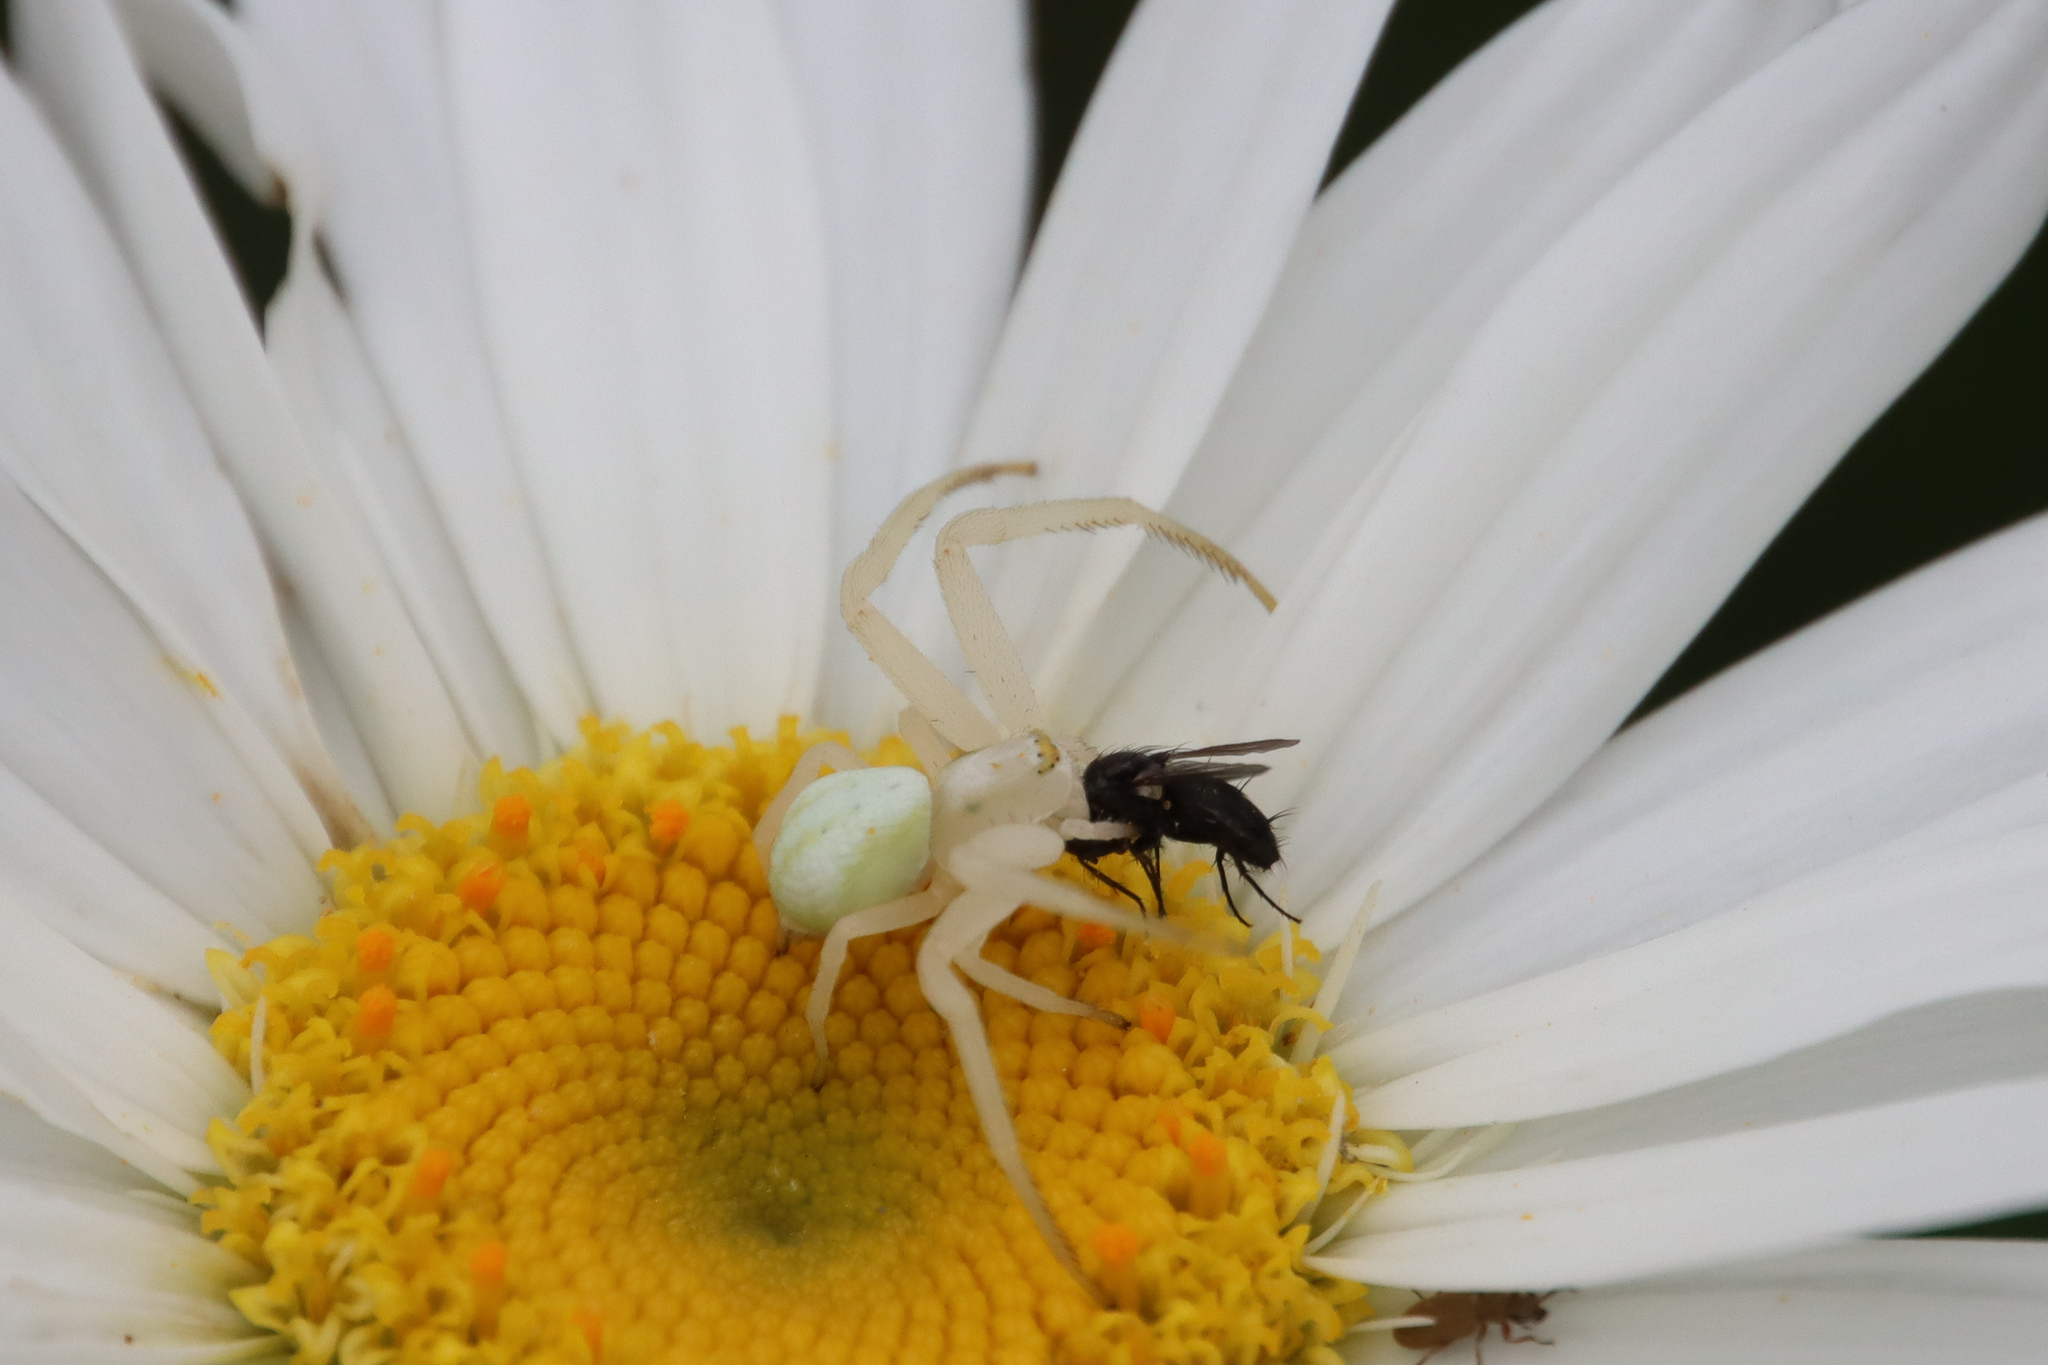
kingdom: Animalia
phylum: Arthropoda
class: Arachnida
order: Araneae
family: Thomisidae
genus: Misumena
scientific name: Misumena vatia
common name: Goldenrod crab spider
